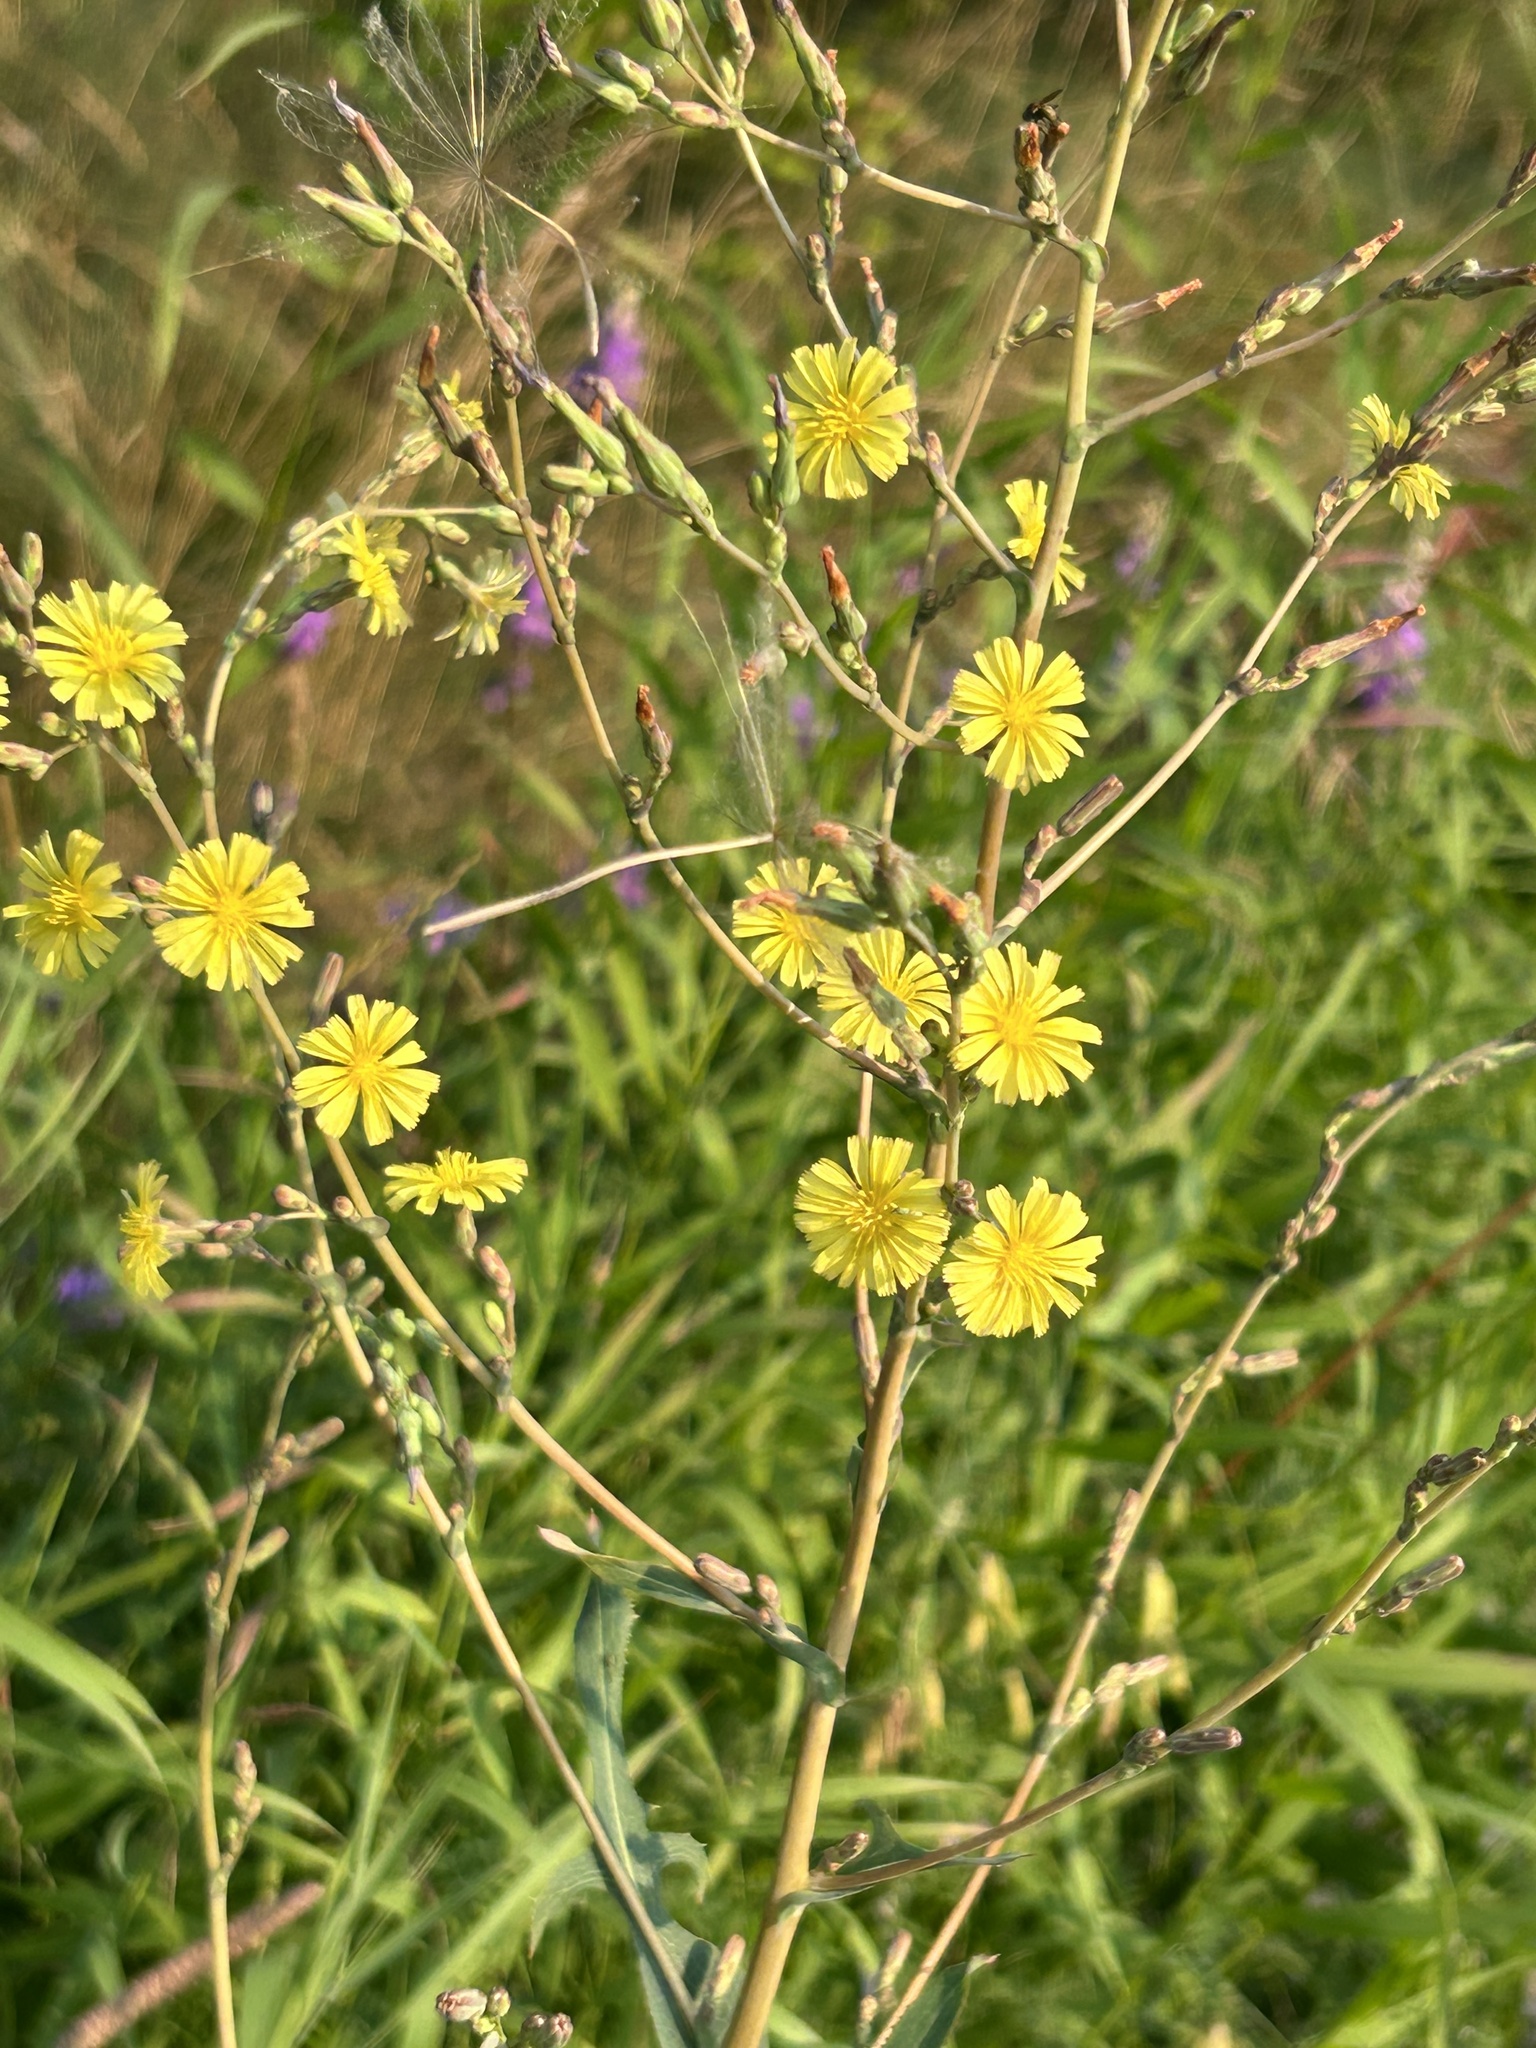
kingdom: Plantae
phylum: Tracheophyta
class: Magnoliopsida
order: Asterales
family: Asteraceae
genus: Lactuca
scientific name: Lactuca serriola
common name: Prickly lettuce
